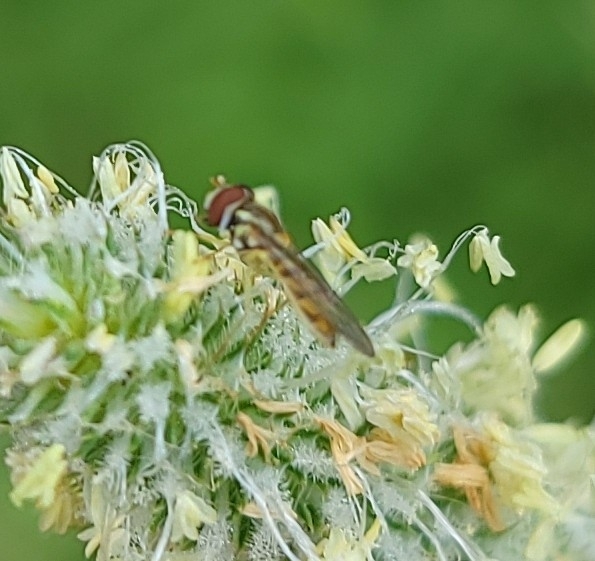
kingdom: Animalia
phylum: Arthropoda
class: Insecta
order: Diptera
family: Syrphidae
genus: Toxomerus
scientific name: Toxomerus marginatus
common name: Syrphid fly
